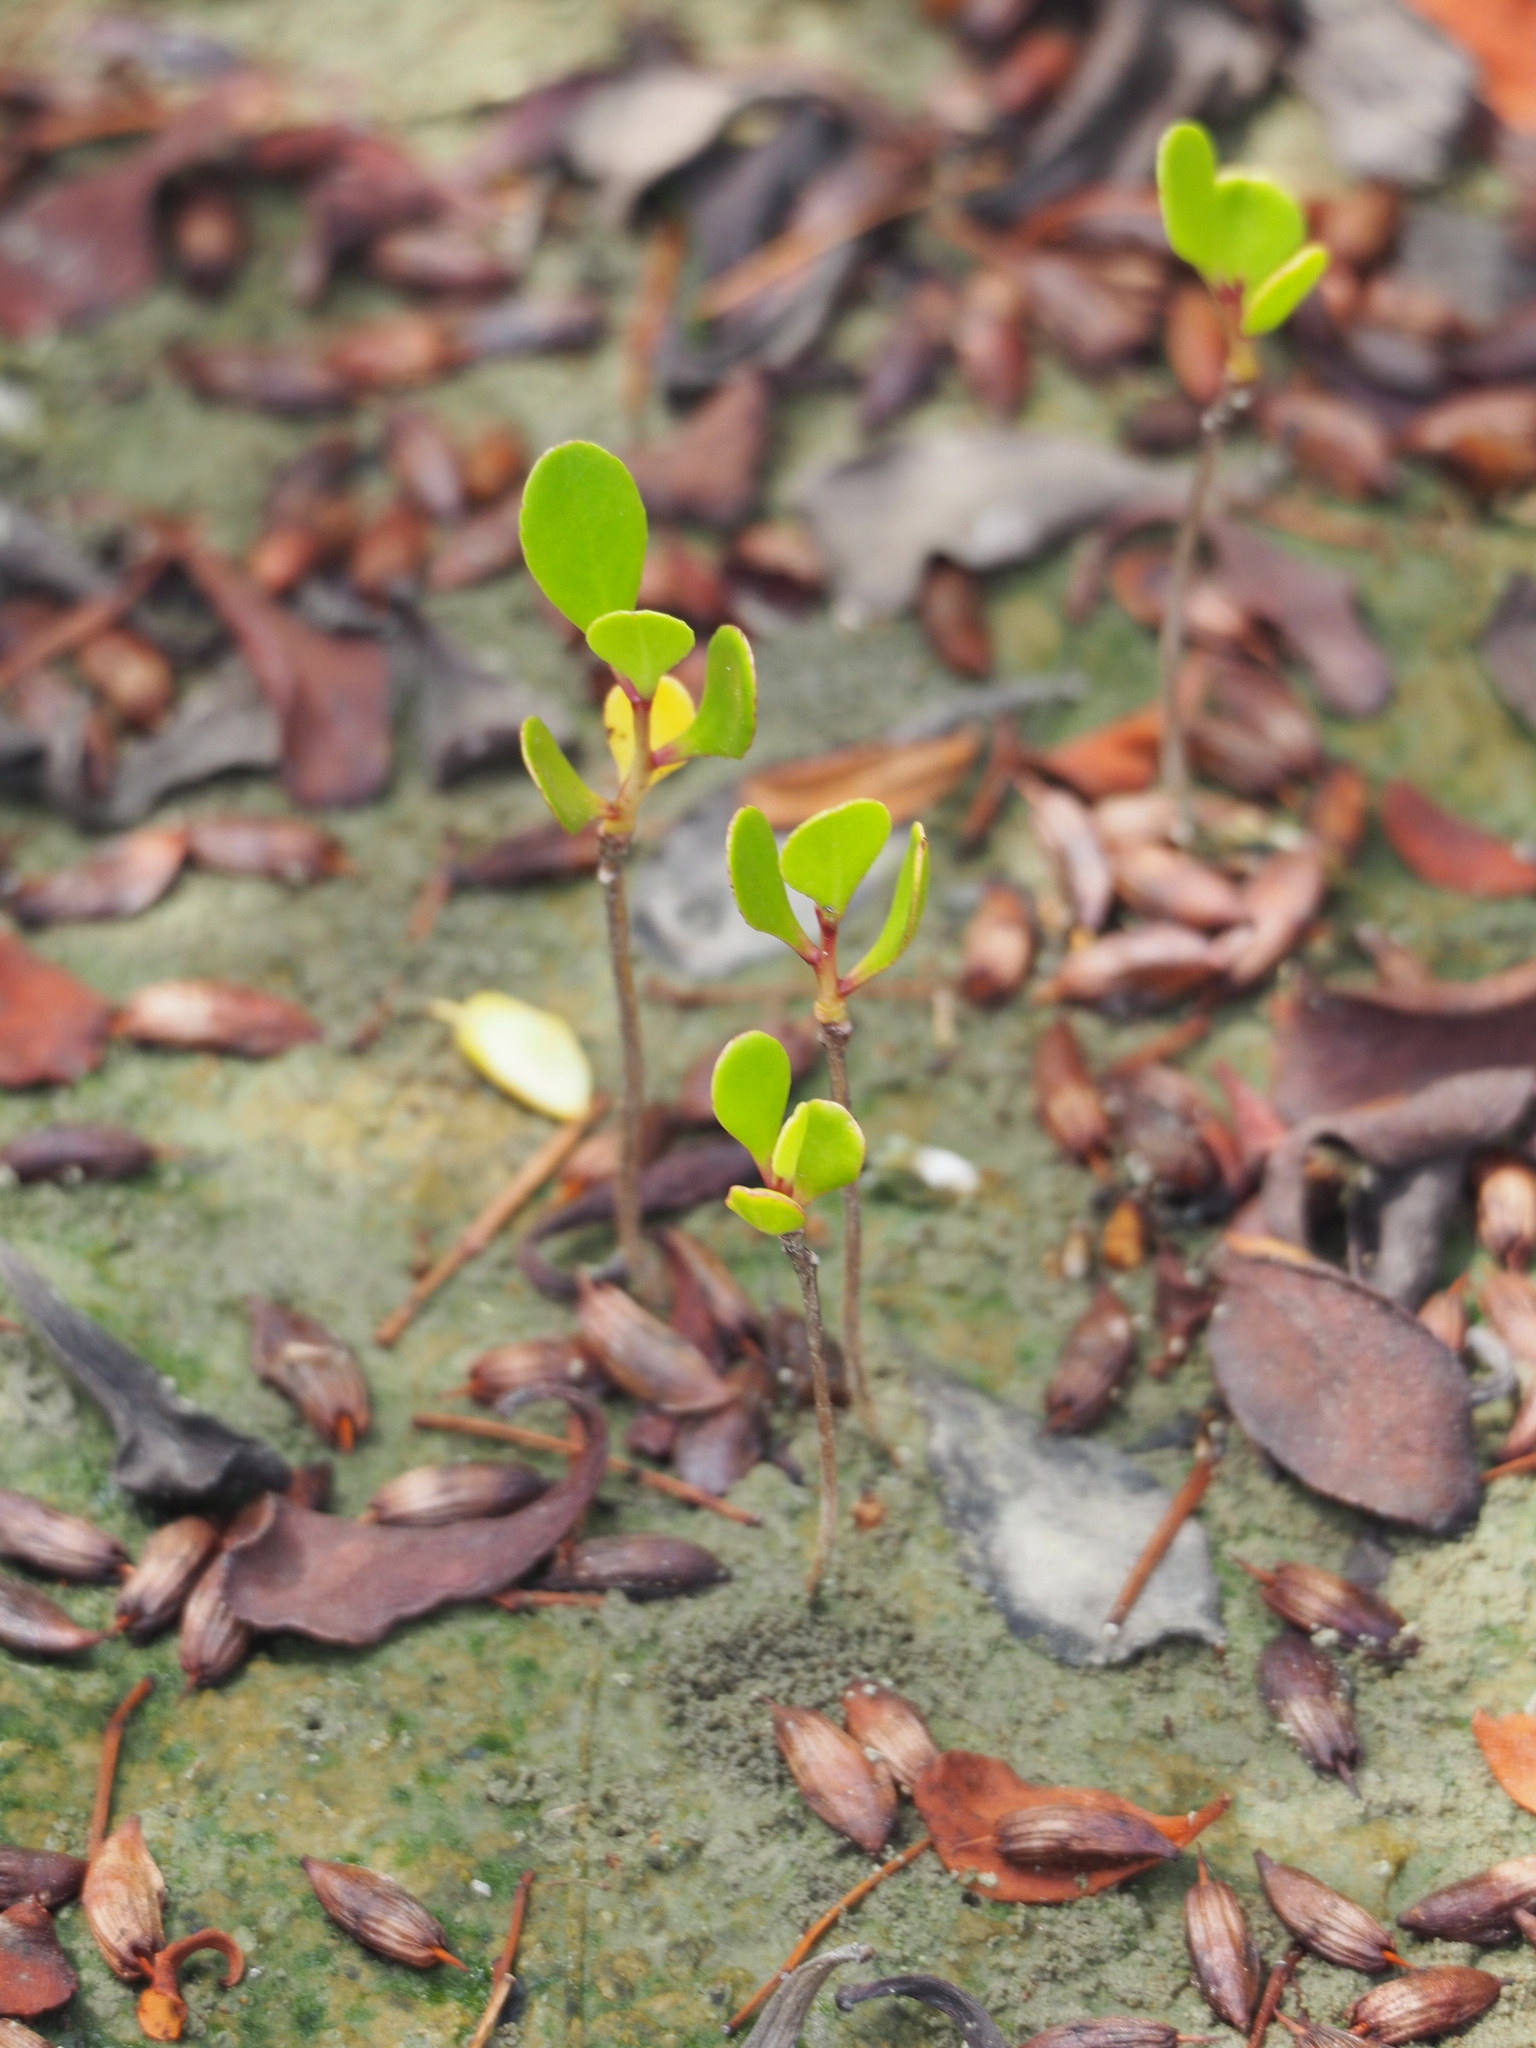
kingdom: Plantae
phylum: Tracheophyta
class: Magnoliopsida
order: Myrtales
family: Combretaceae
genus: Lumnitzera
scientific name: Lumnitzera racemosa
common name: White-flowered black mangrove
